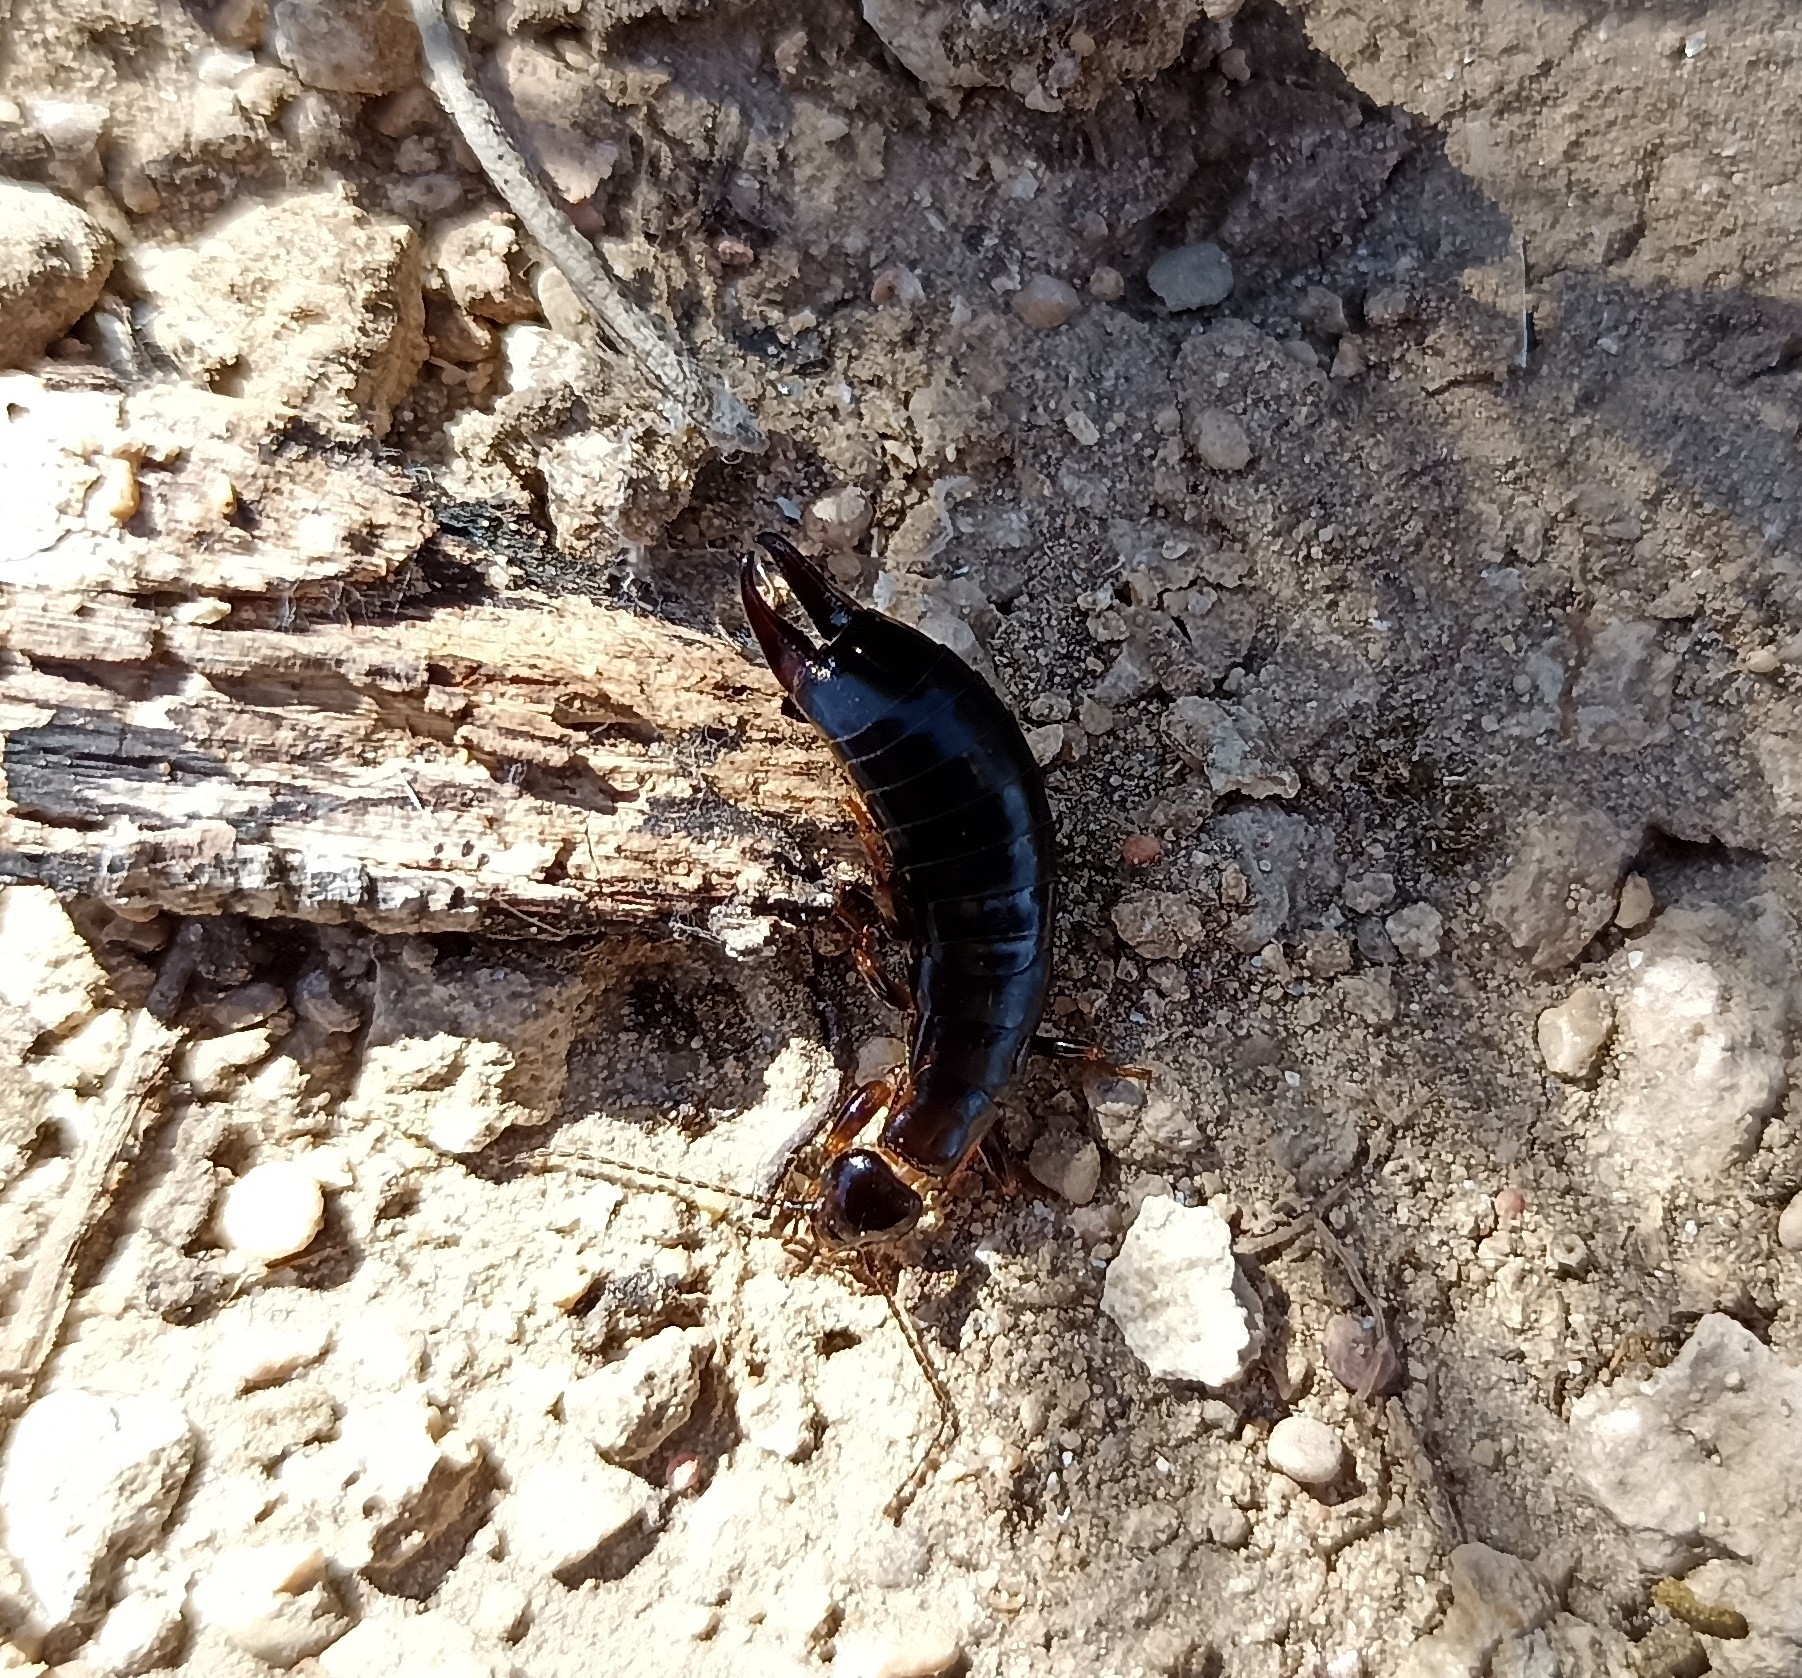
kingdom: Animalia
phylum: Arthropoda
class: Insecta
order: Dermaptera
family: Anisolabididae
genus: Euborellia
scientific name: Euborellia moesta
